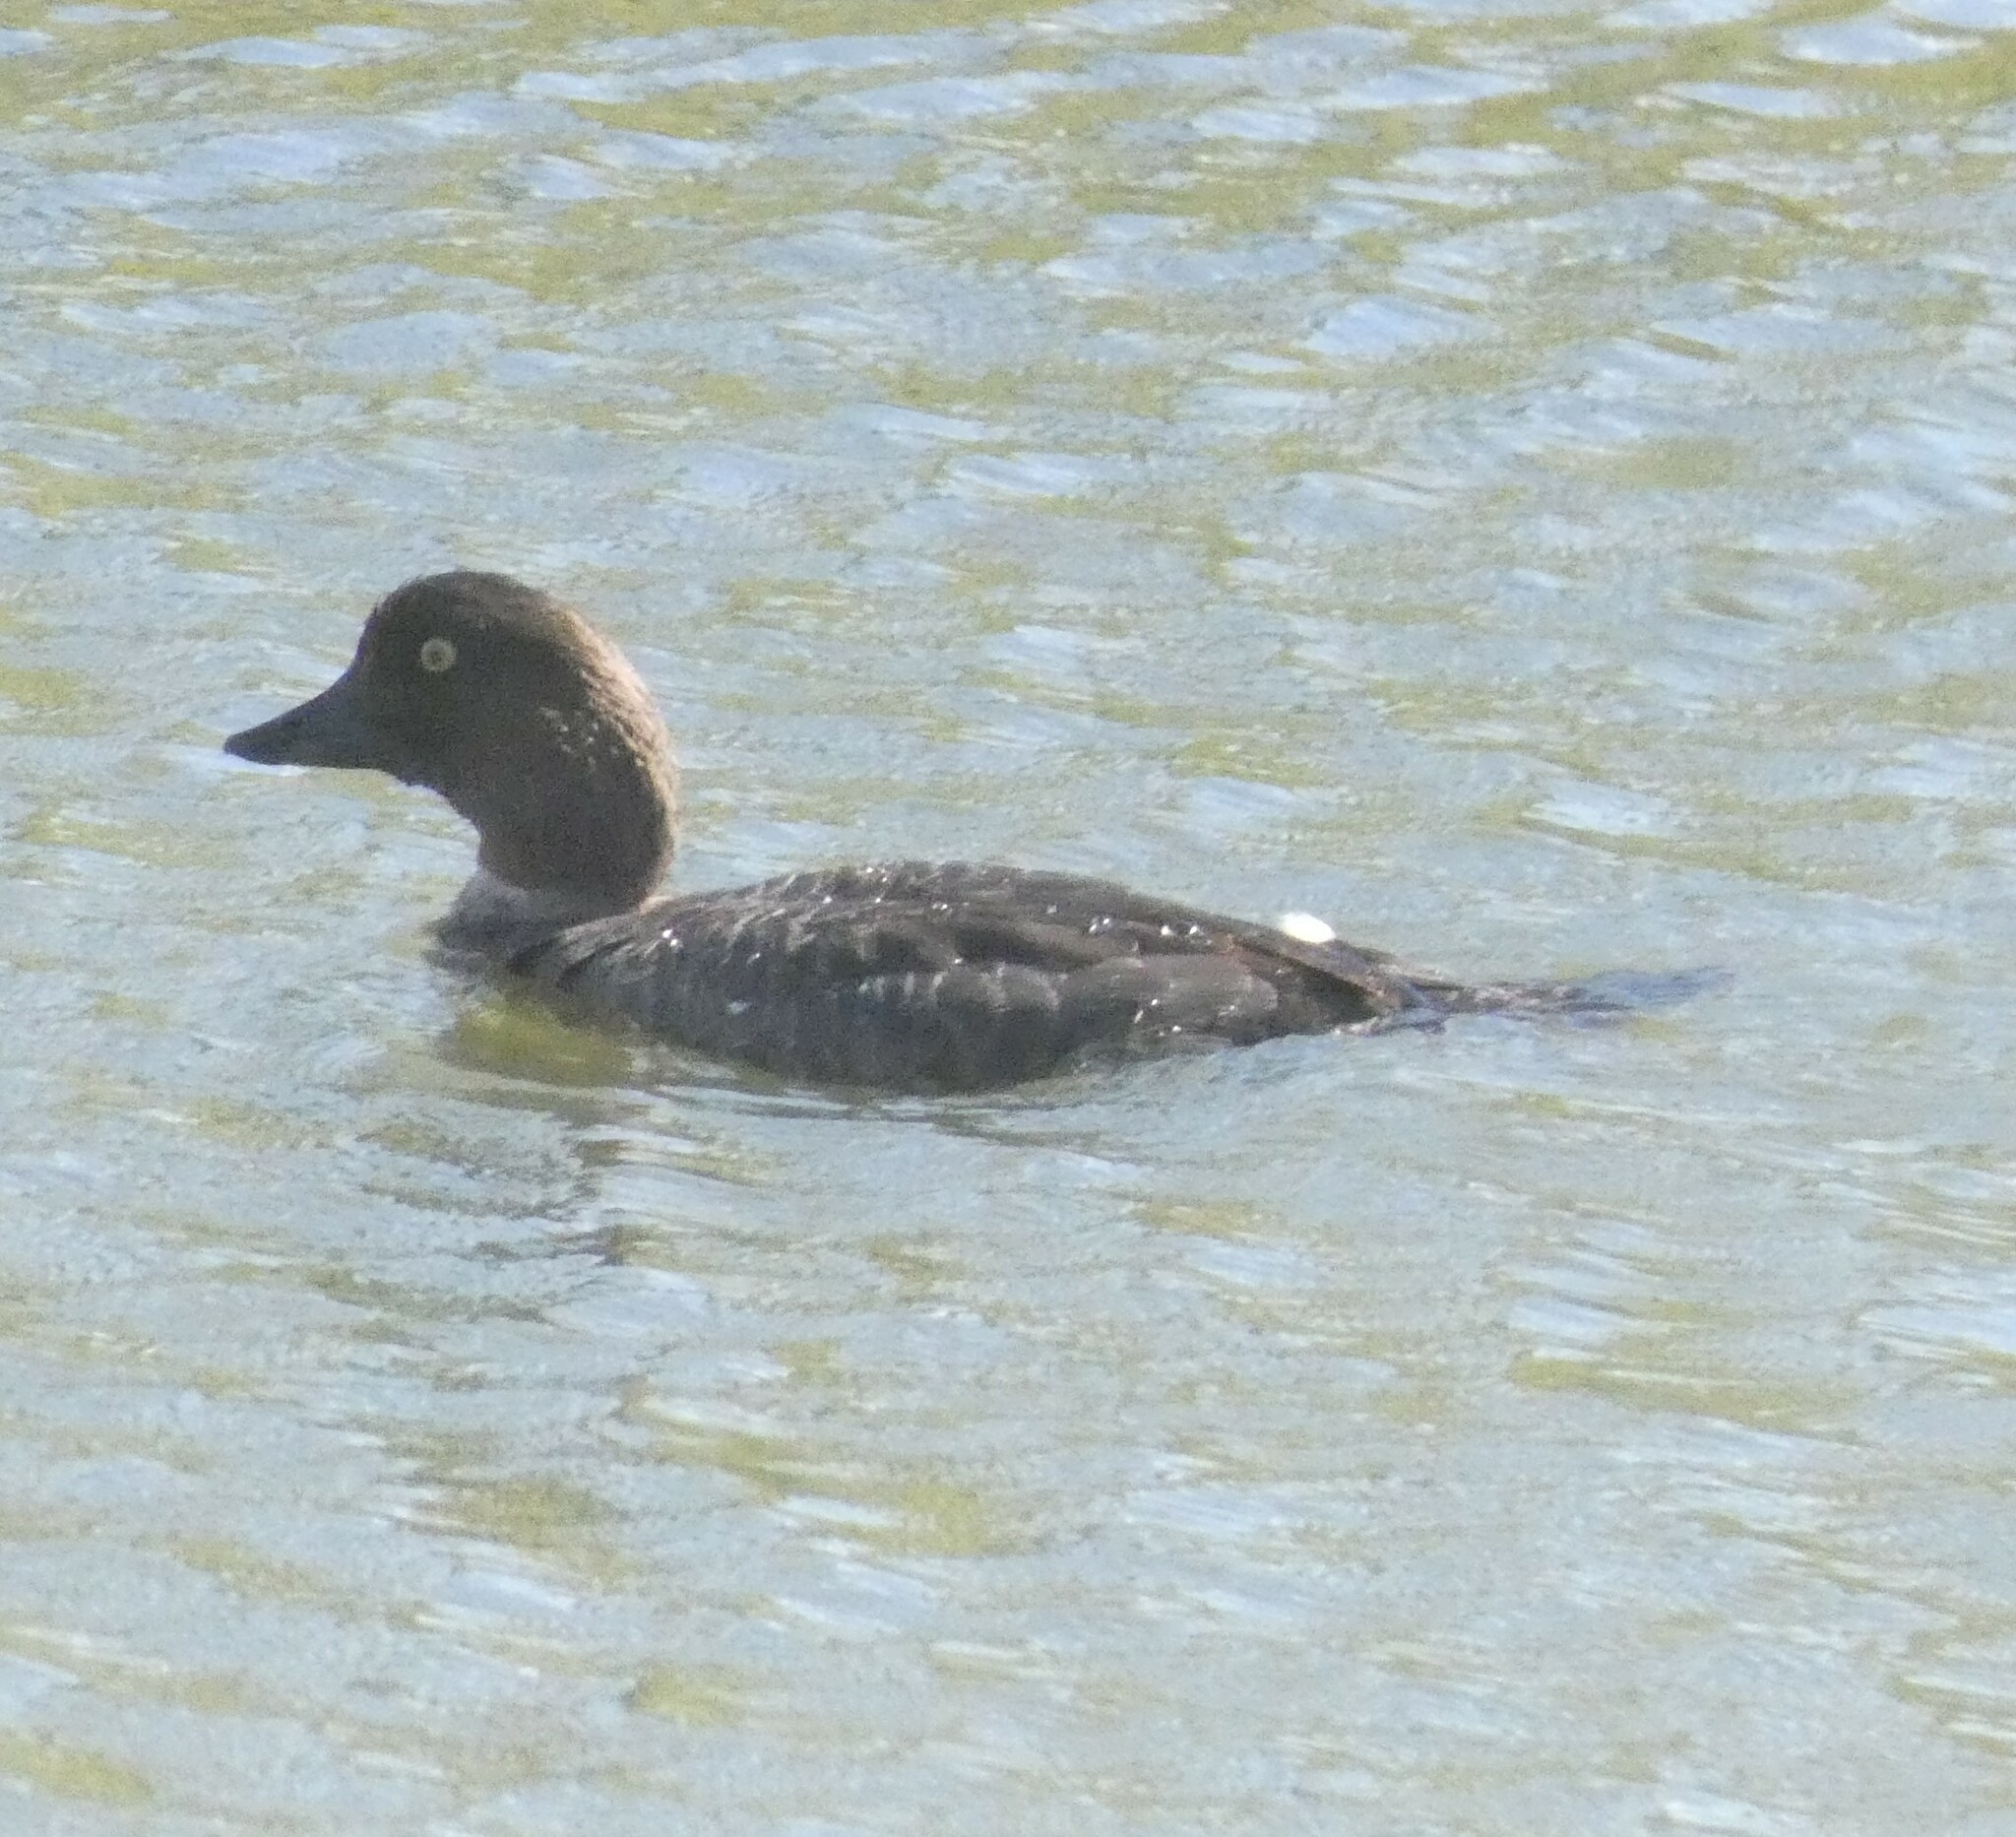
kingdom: Animalia
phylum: Chordata
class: Aves
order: Anseriformes
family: Anatidae
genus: Bucephala
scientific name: Bucephala clangula
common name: Common goldeneye
